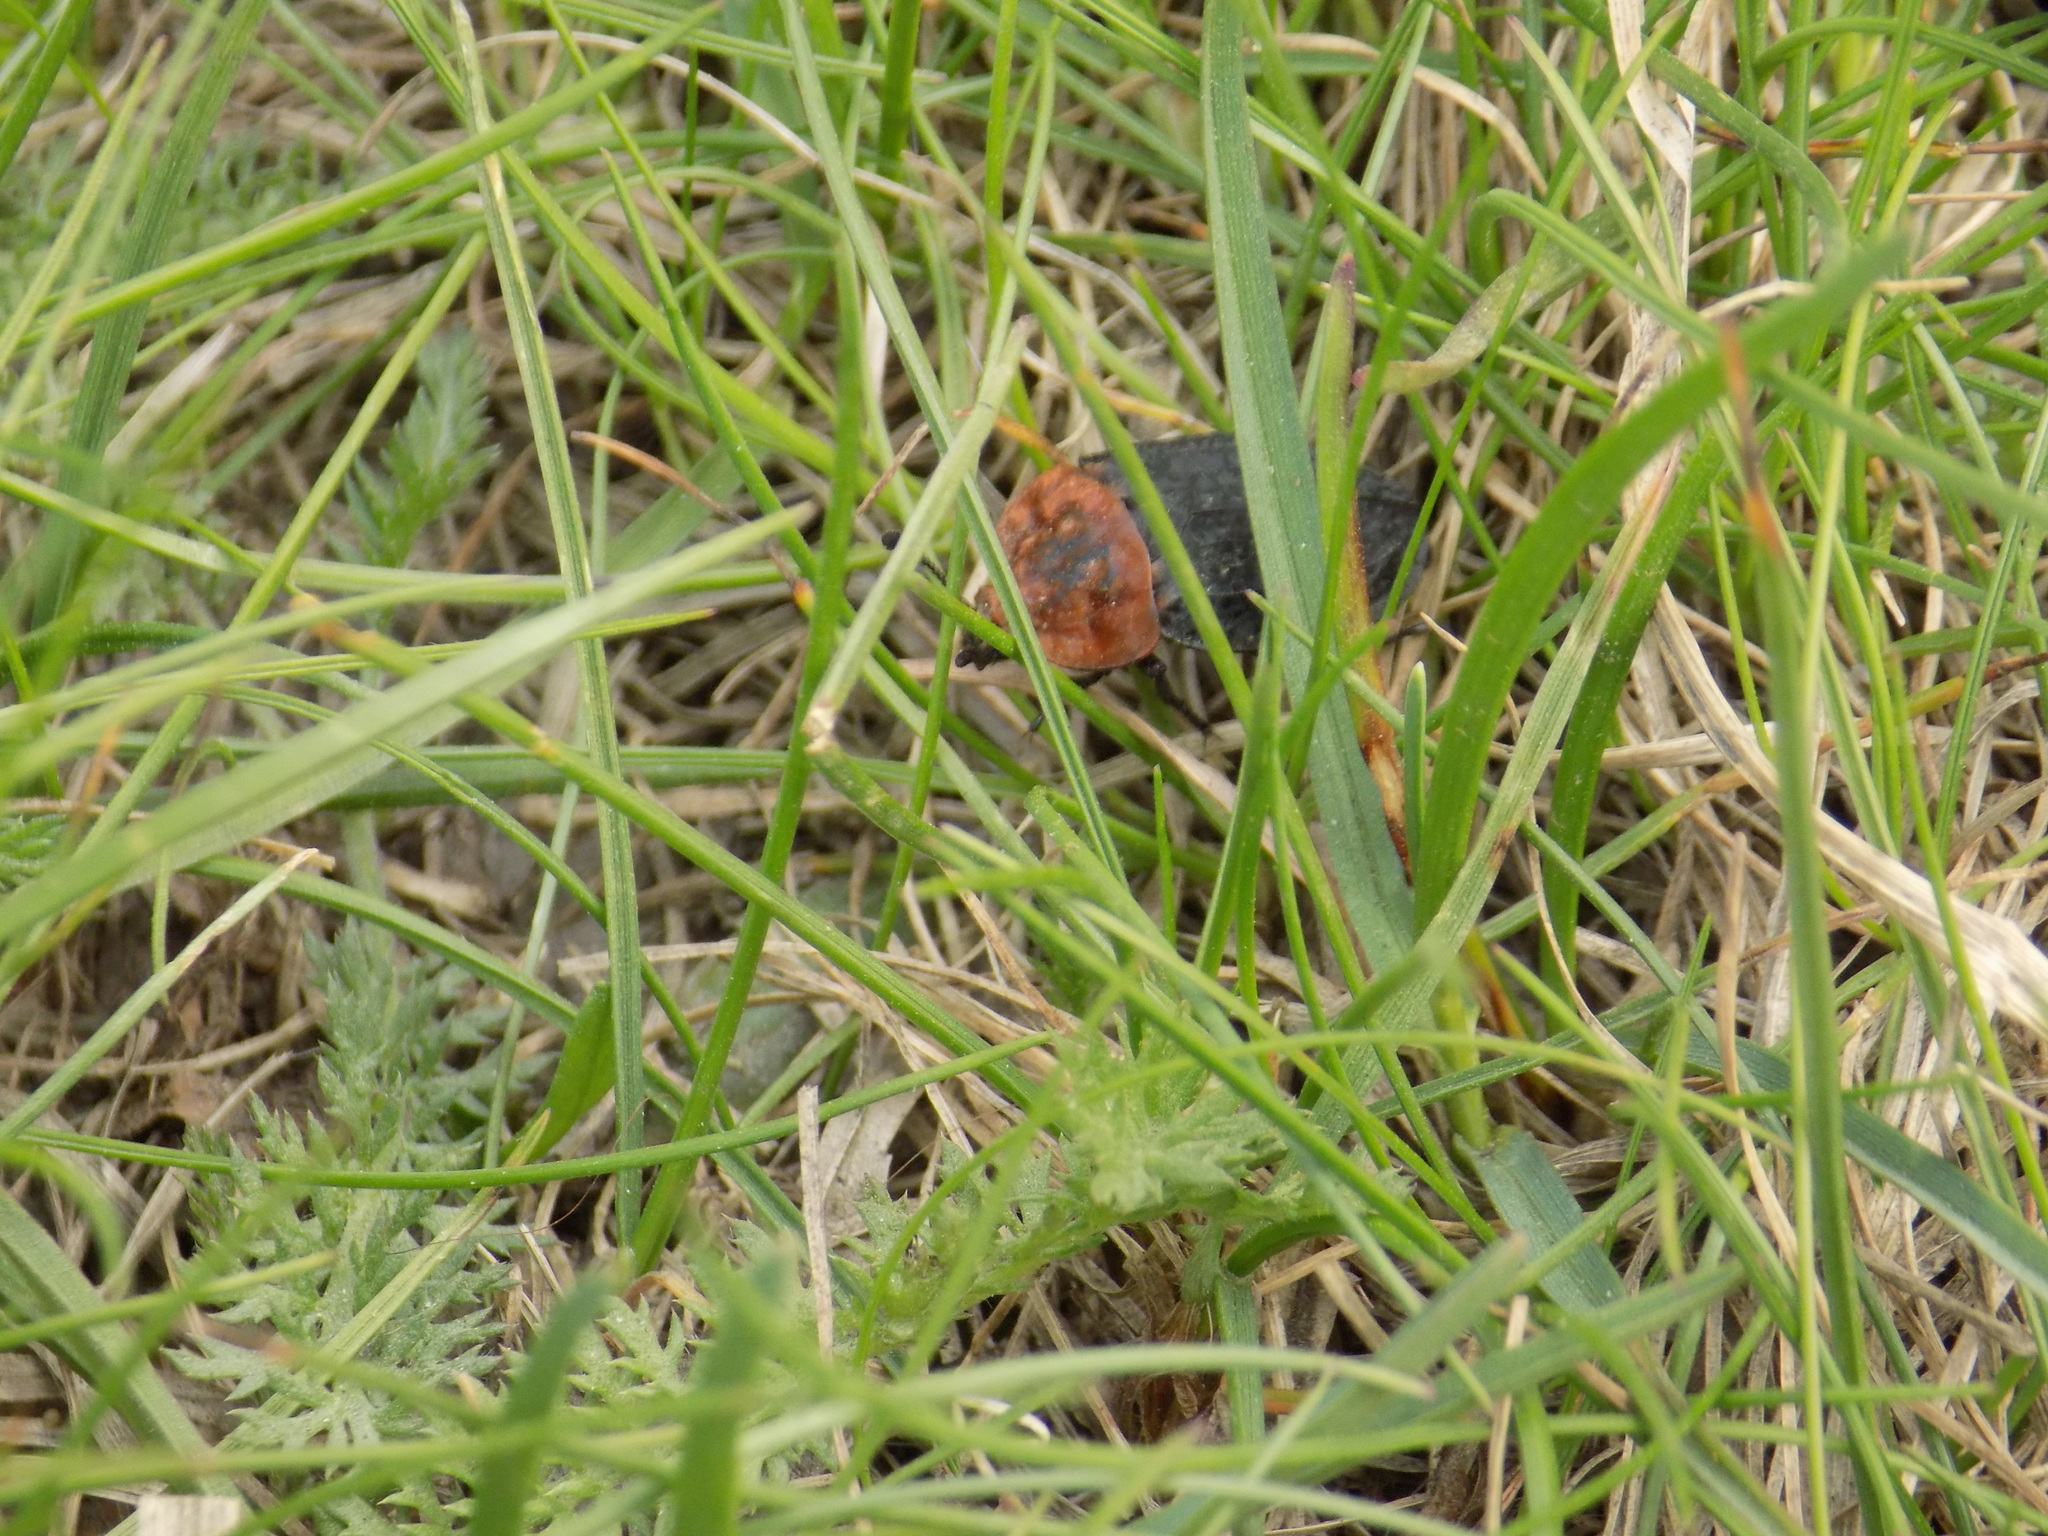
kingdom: Animalia
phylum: Arthropoda
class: Insecta
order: Coleoptera
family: Staphylinidae
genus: Oiceoptoma
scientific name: Oiceoptoma thoracicum
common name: Red-breasted carrion beetle
